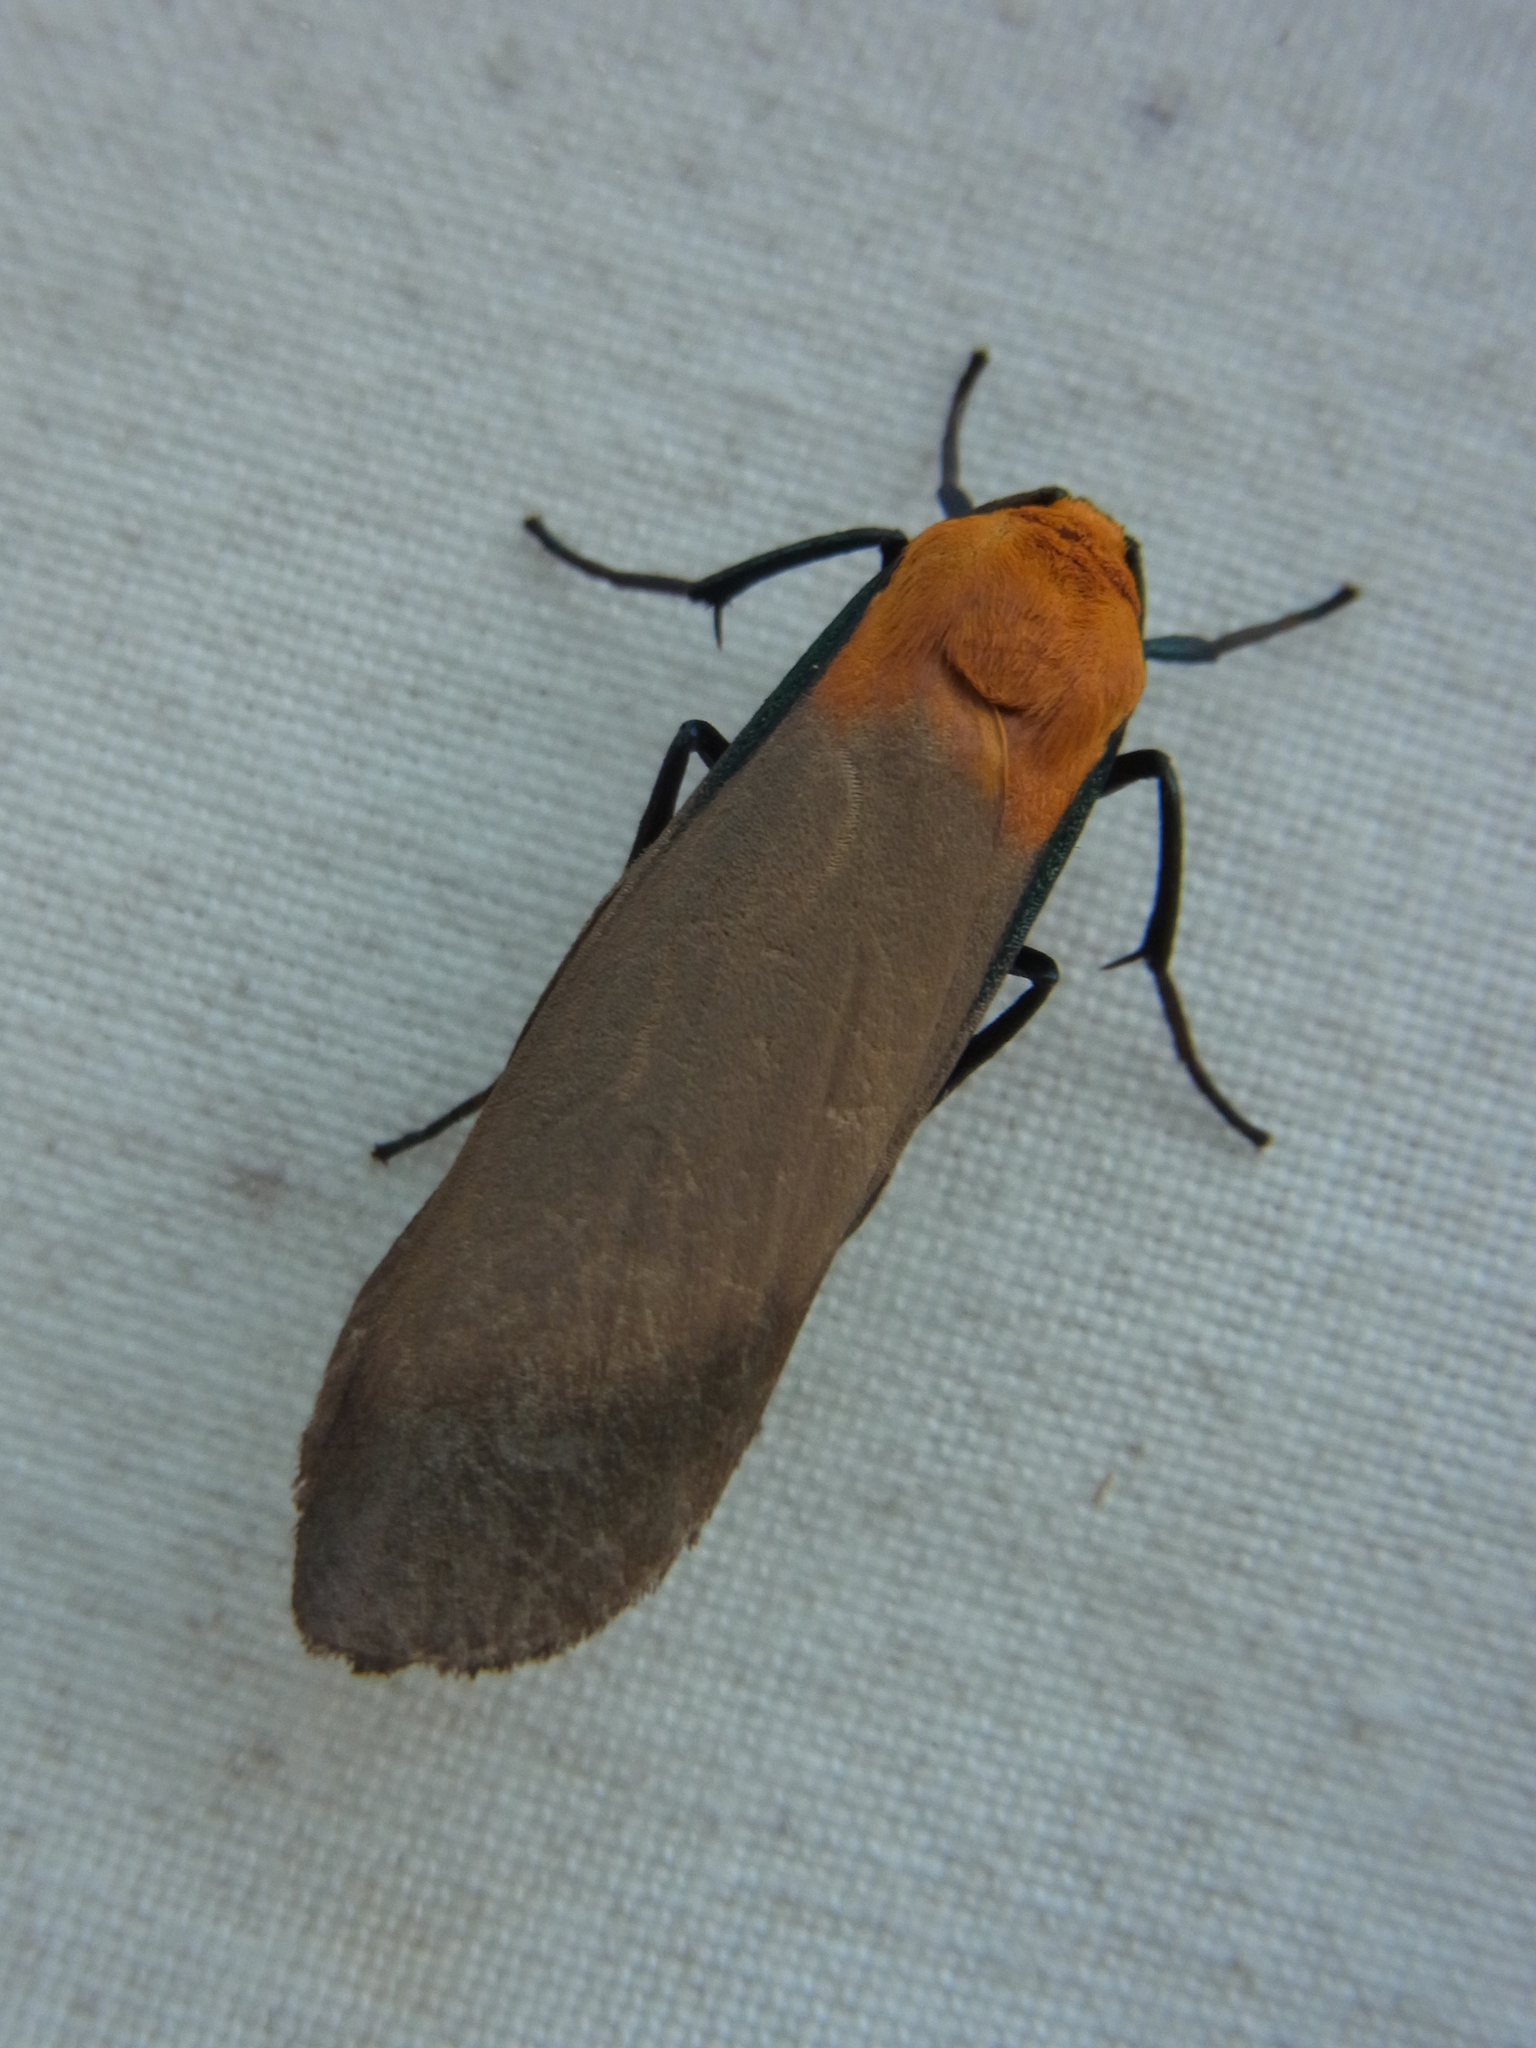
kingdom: Animalia
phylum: Arthropoda
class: Insecta
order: Lepidoptera
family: Erebidae
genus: Lithosia
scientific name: Lithosia quadra
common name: Four-spotted footman
